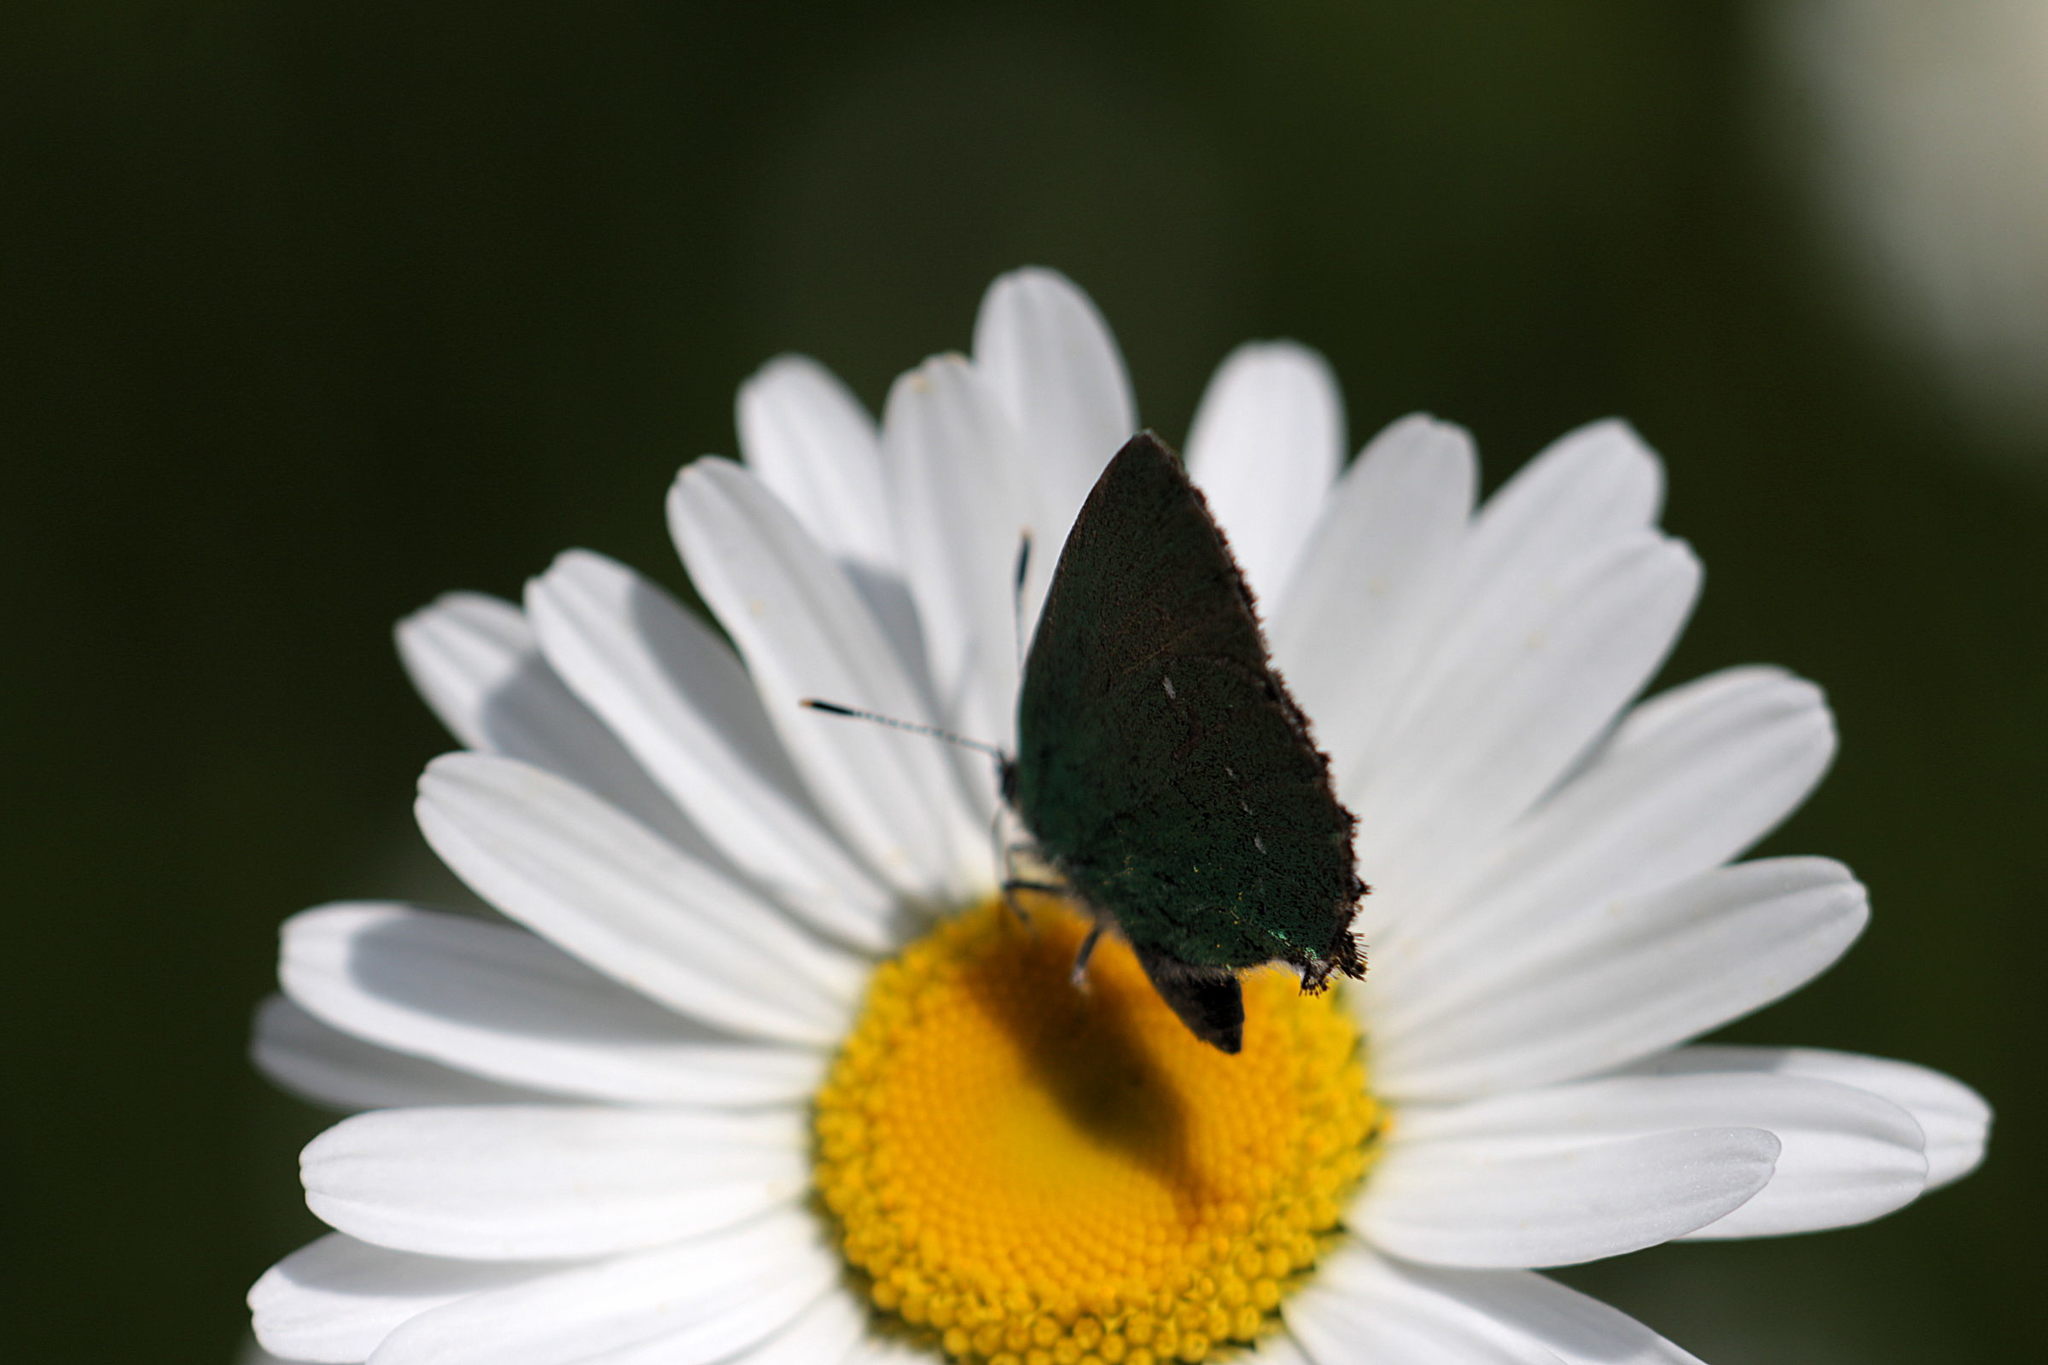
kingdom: Animalia
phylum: Arthropoda
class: Insecta
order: Lepidoptera
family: Lycaenidae
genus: Callophrys
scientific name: Callophrys rubi
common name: Green hairstreak
